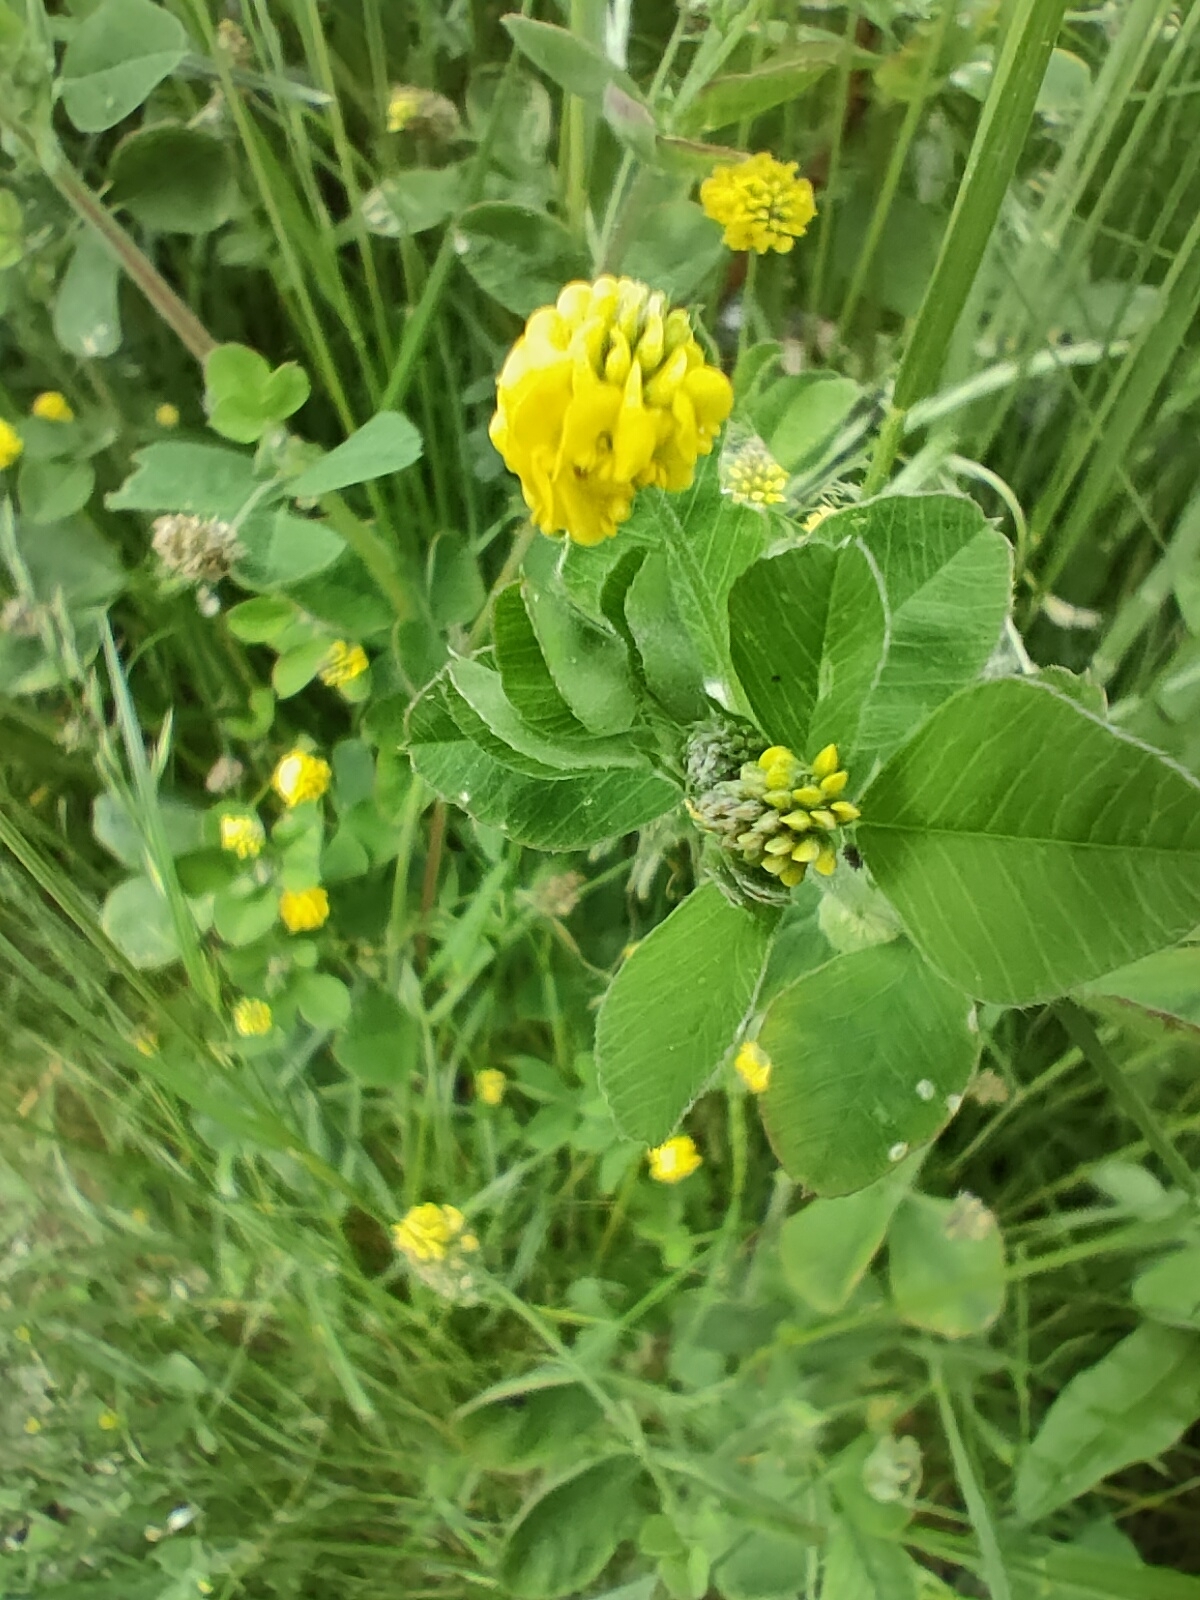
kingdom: Plantae
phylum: Tracheophyta
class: Magnoliopsida
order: Fabales
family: Fabaceae
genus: Medicago
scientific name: Medicago lupulina
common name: Black medick
